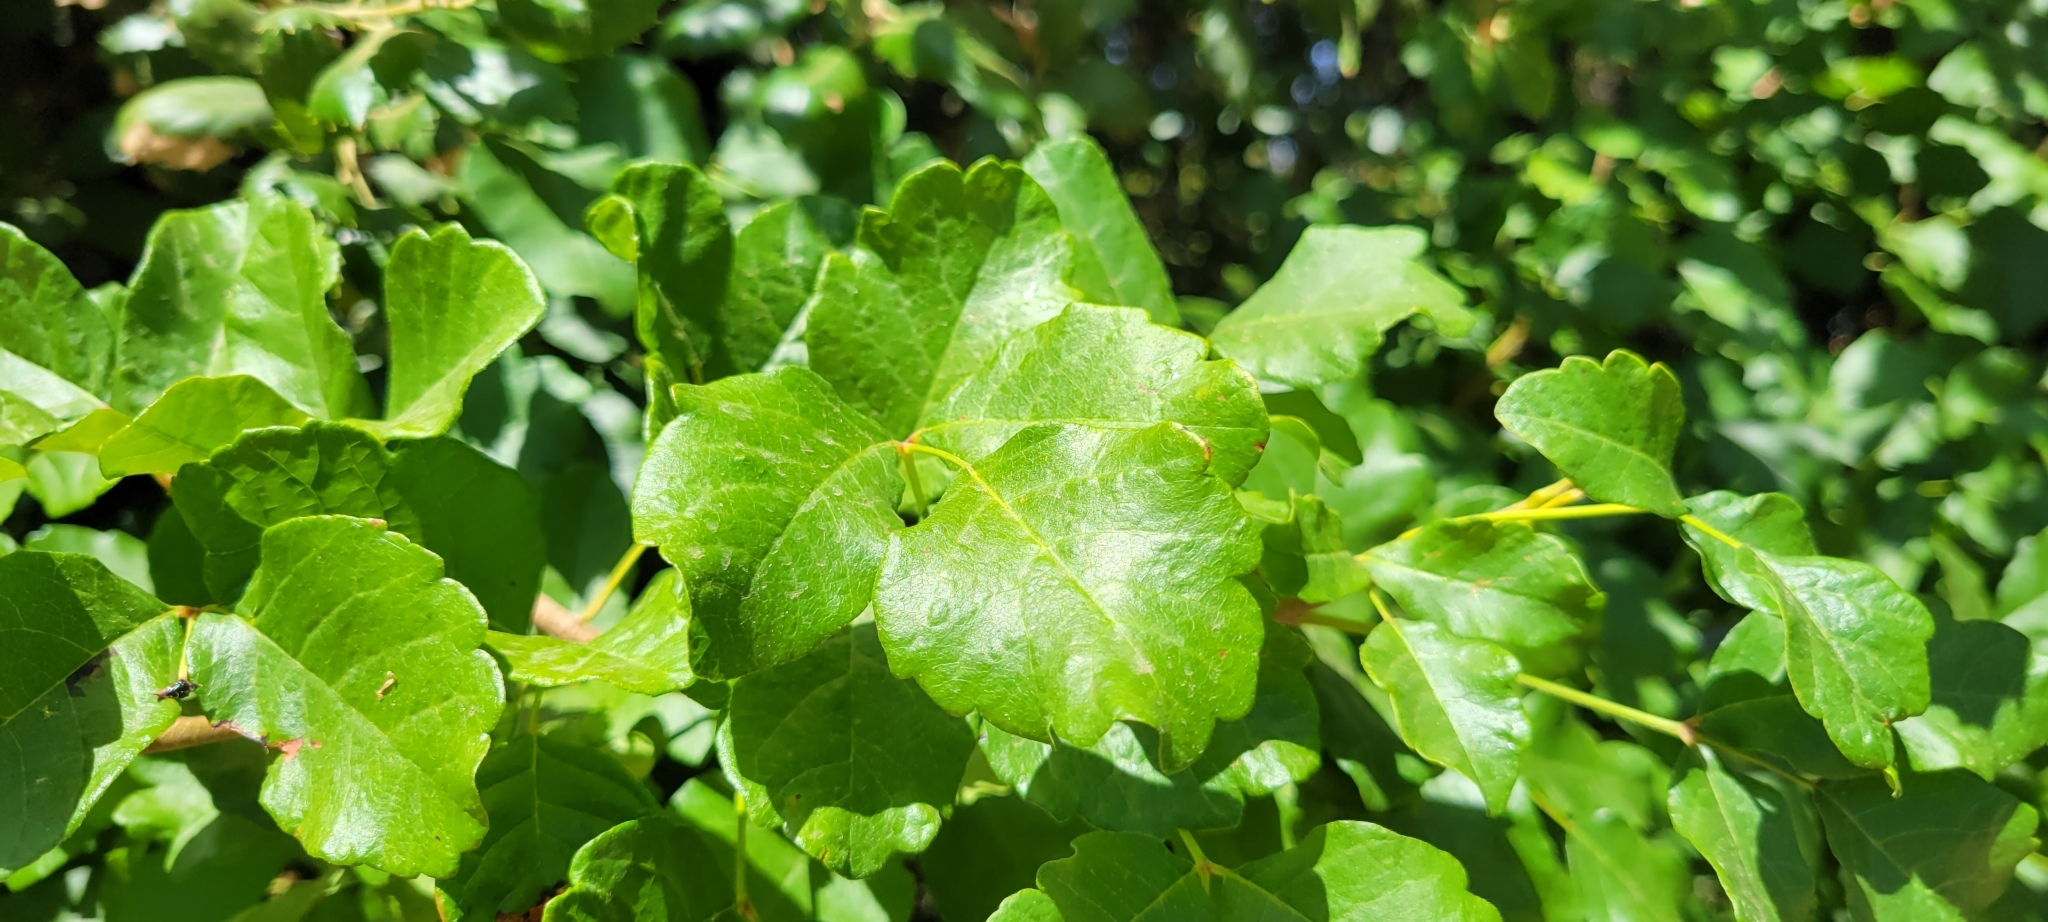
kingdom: Plantae
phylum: Tracheophyta
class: Magnoliopsida
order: Sapindales
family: Anacardiaceae
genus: Toxicodendron
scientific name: Toxicodendron diversilobum
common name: Pacific poison-oak
